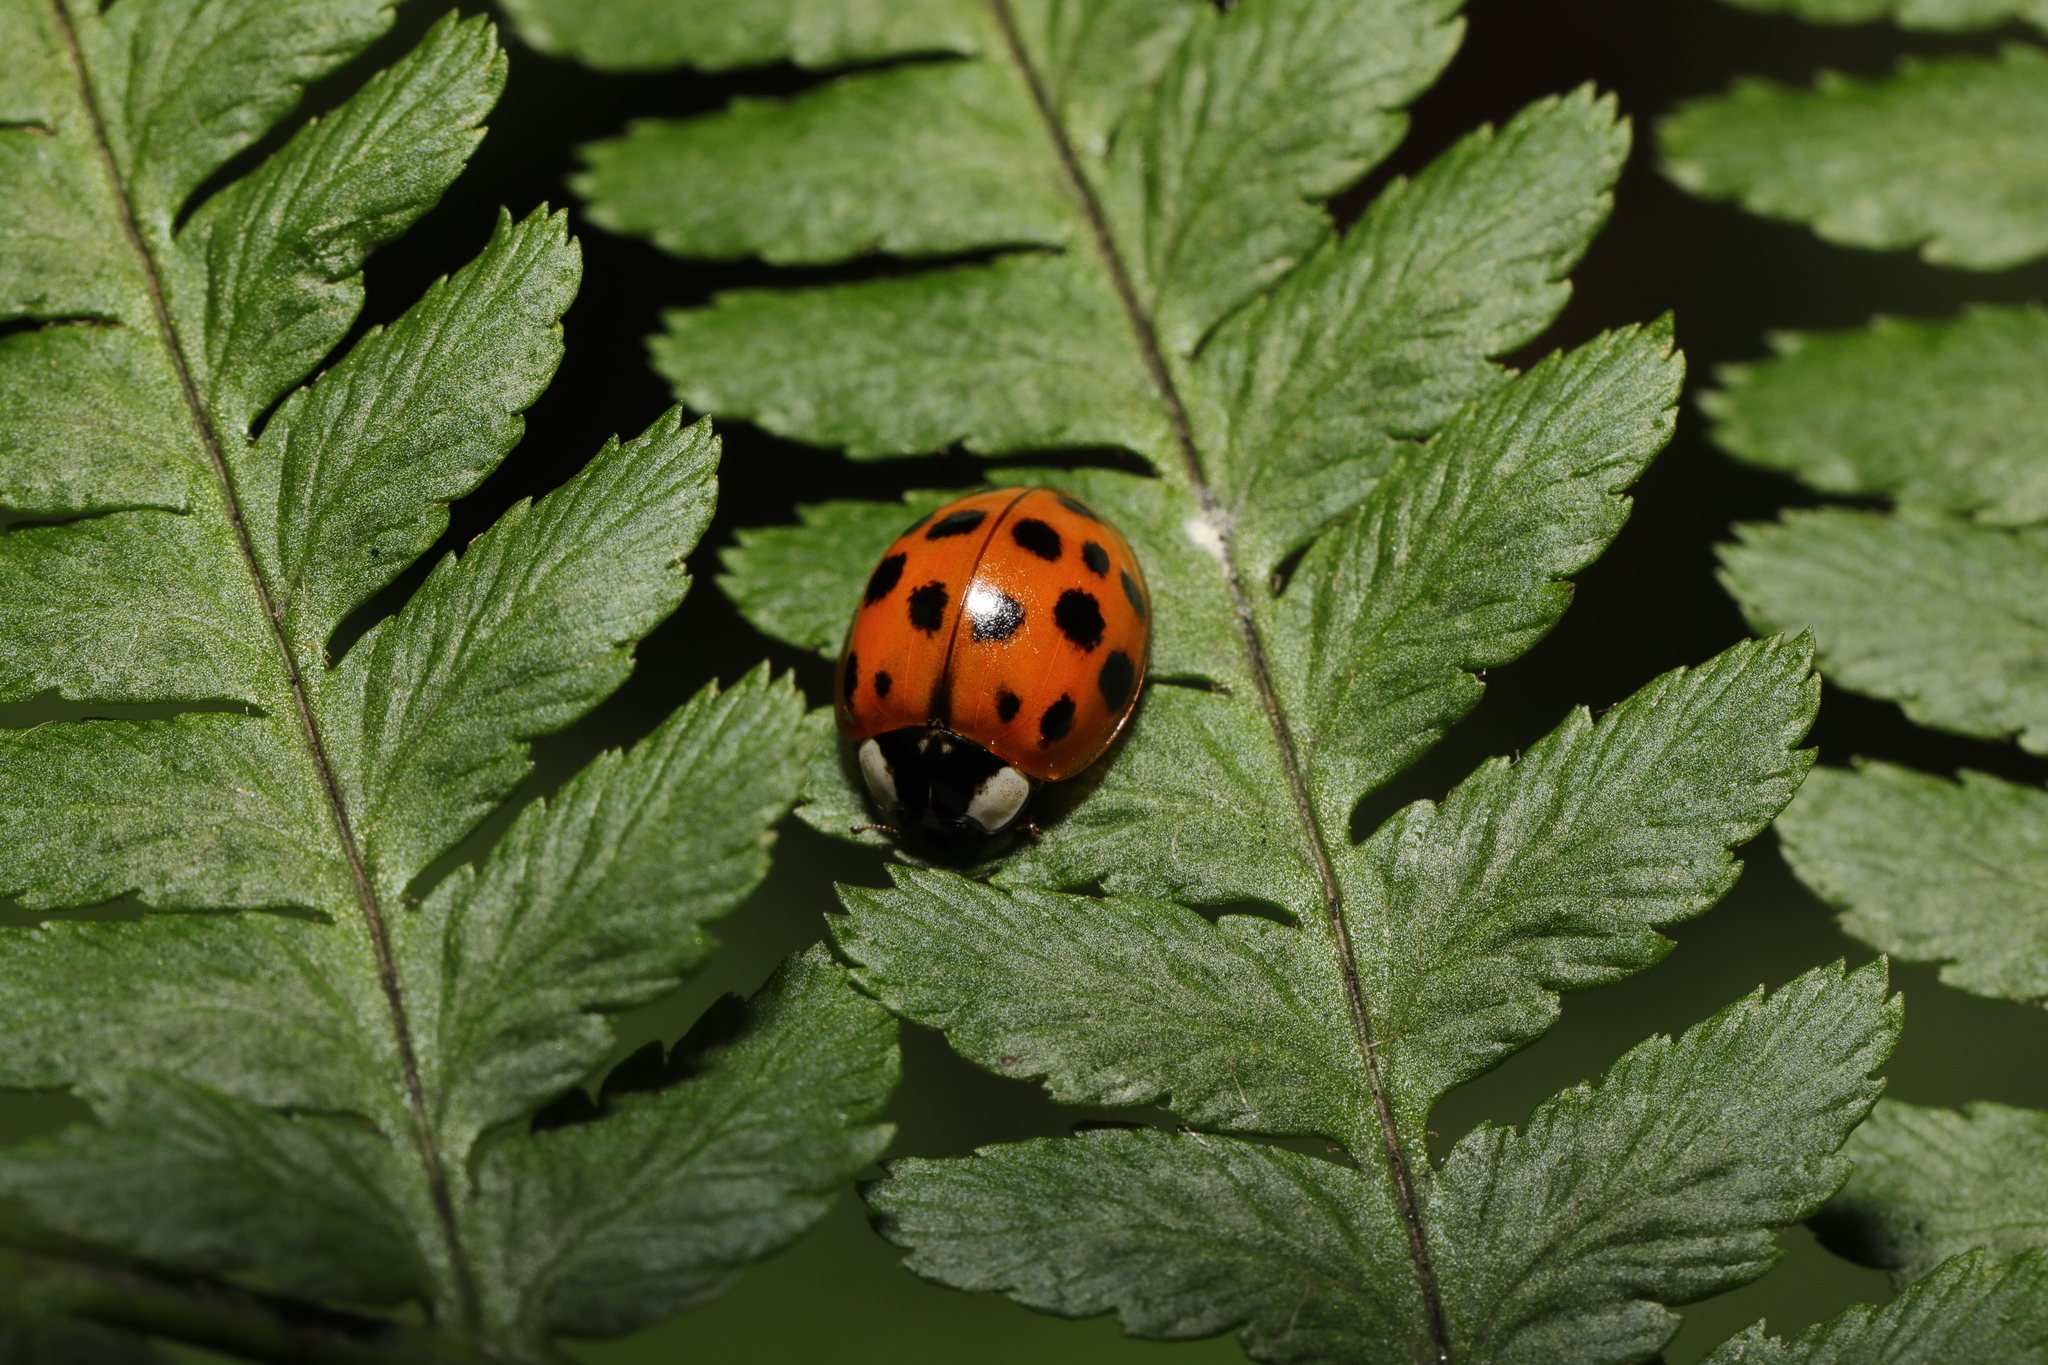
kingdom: Animalia
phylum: Arthropoda
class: Insecta
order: Coleoptera
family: Coccinellidae
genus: Harmonia
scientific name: Harmonia axyridis
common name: Harlequin ladybird
